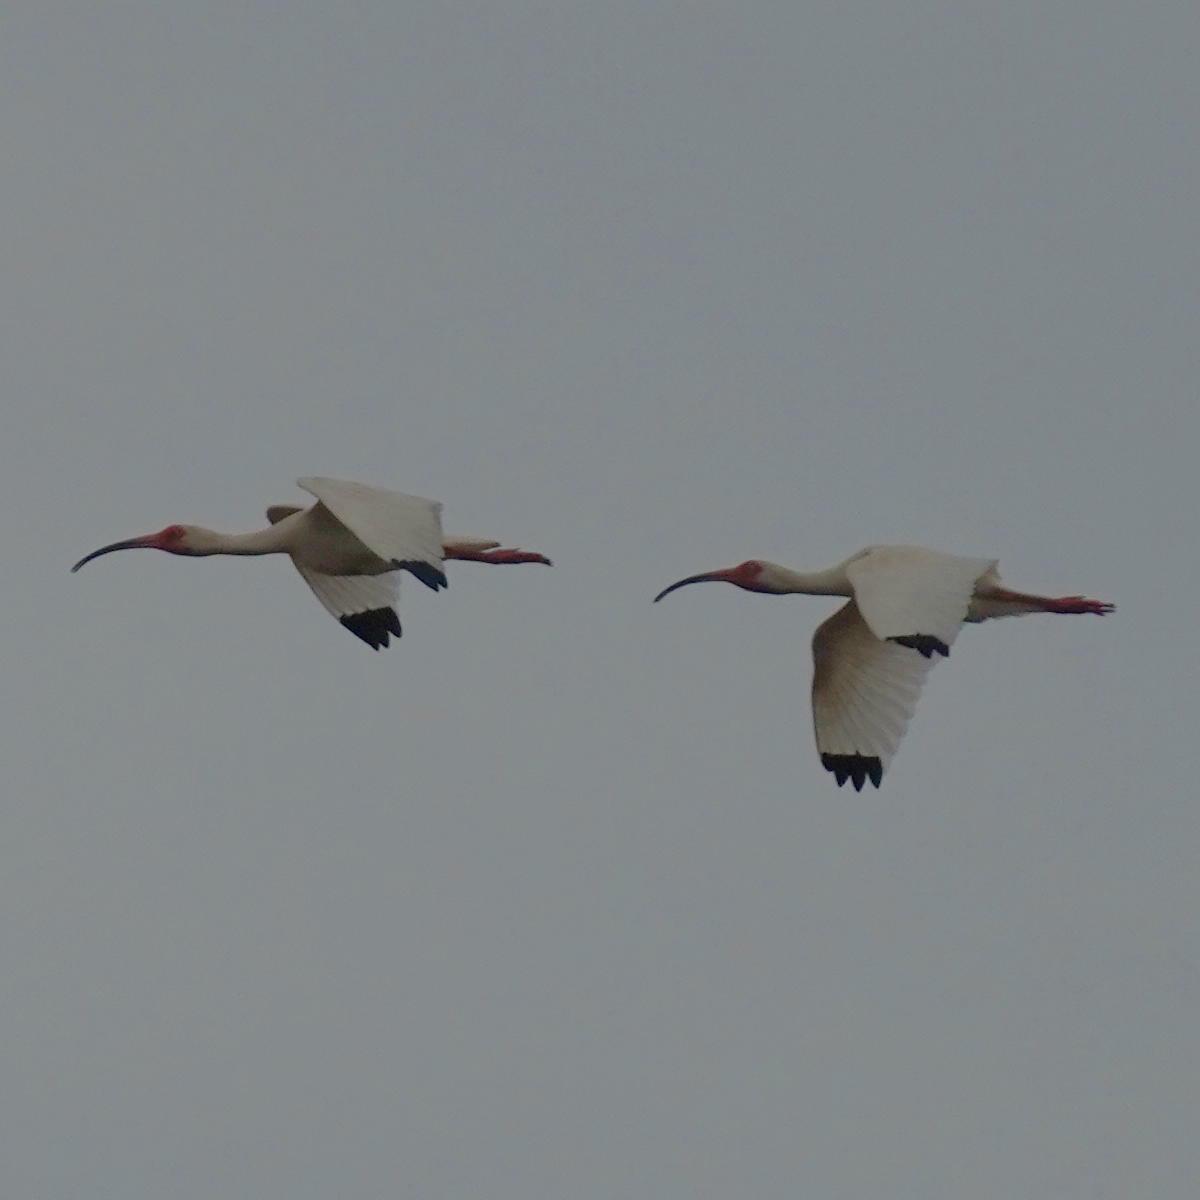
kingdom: Animalia
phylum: Chordata
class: Aves
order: Pelecaniformes
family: Threskiornithidae
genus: Eudocimus
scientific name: Eudocimus albus
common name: White ibis
